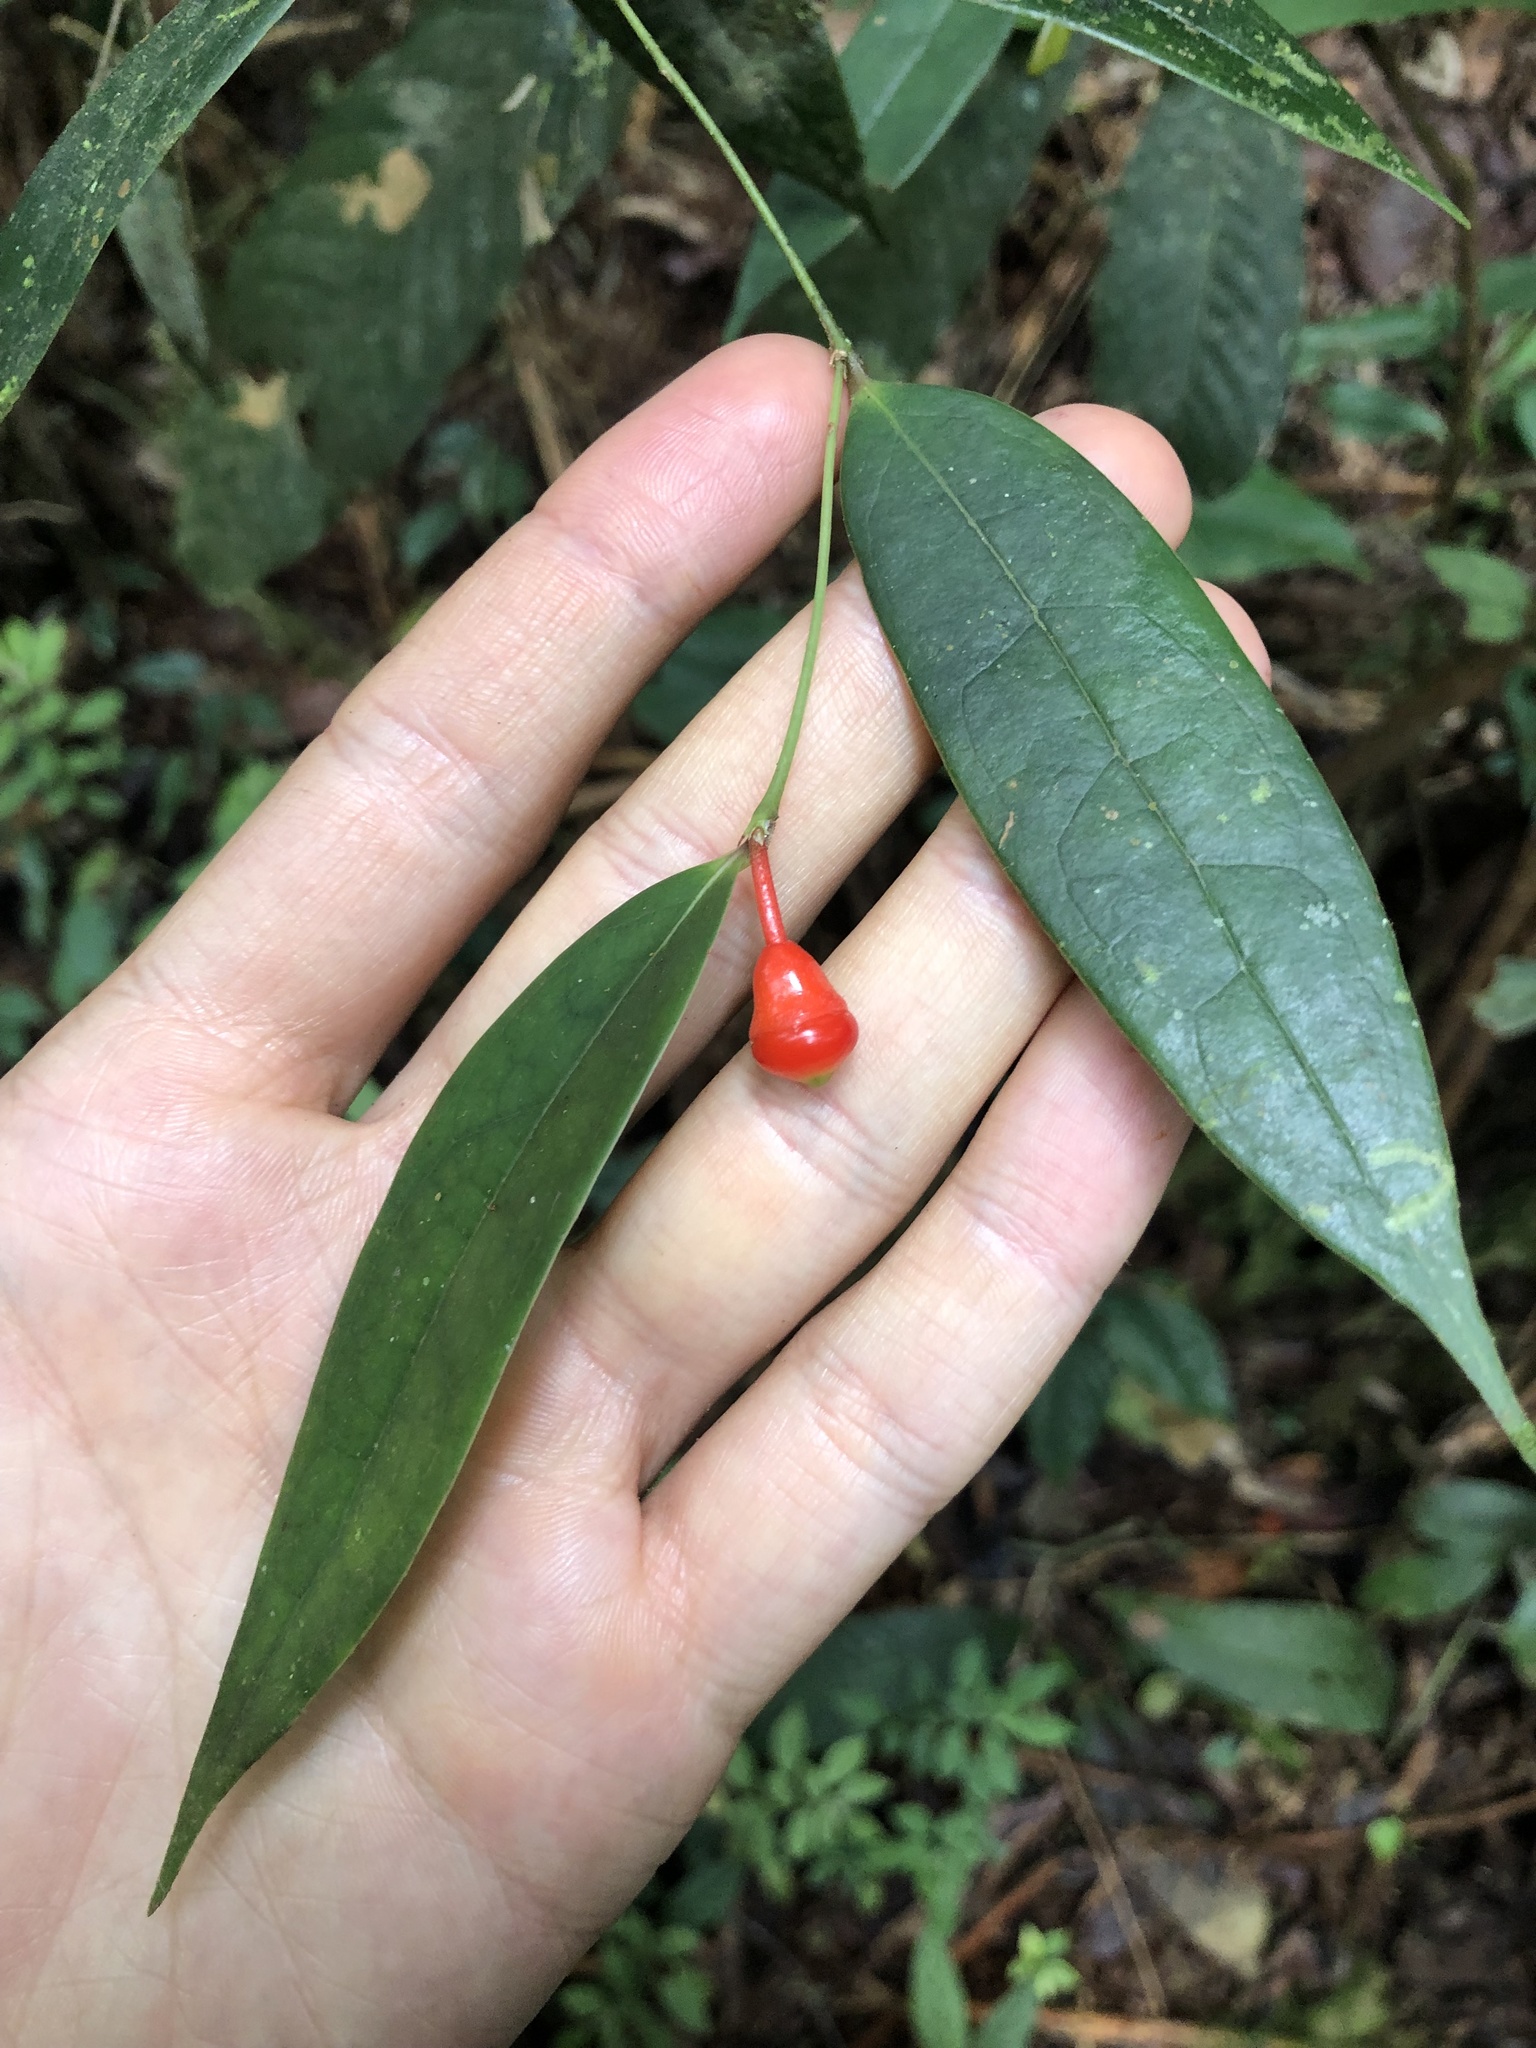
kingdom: Plantae
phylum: Tracheophyta
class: Magnoliopsida
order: Ericales
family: Ericaceae
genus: Psammisia
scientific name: Psammisia pennellii
